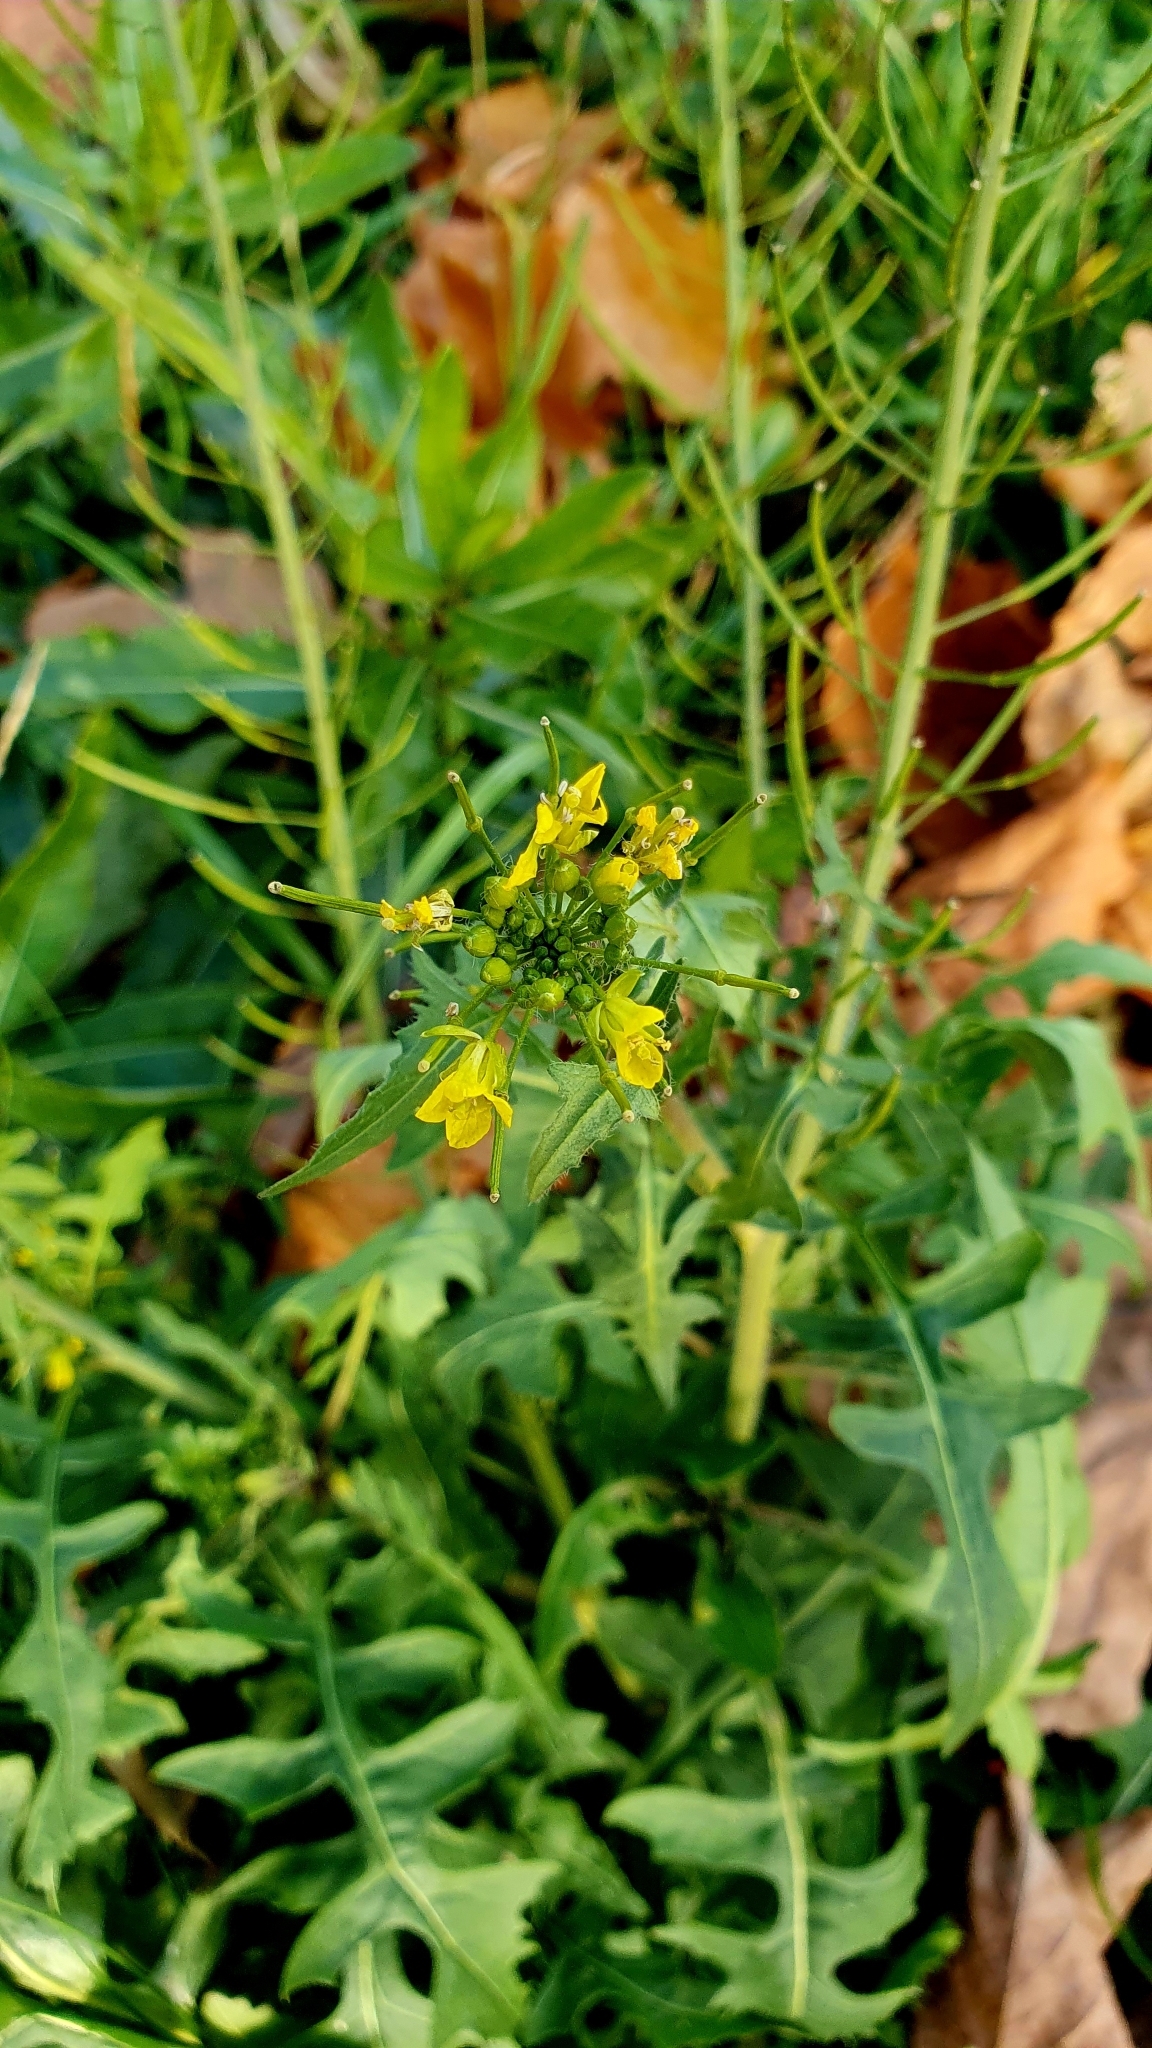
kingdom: Plantae
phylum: Tracheophyta
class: Magnoliopsida
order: Brassicales
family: Brassicaceae
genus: Sisymbrium
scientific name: Sisymbrium loeselii
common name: False london-rocket
